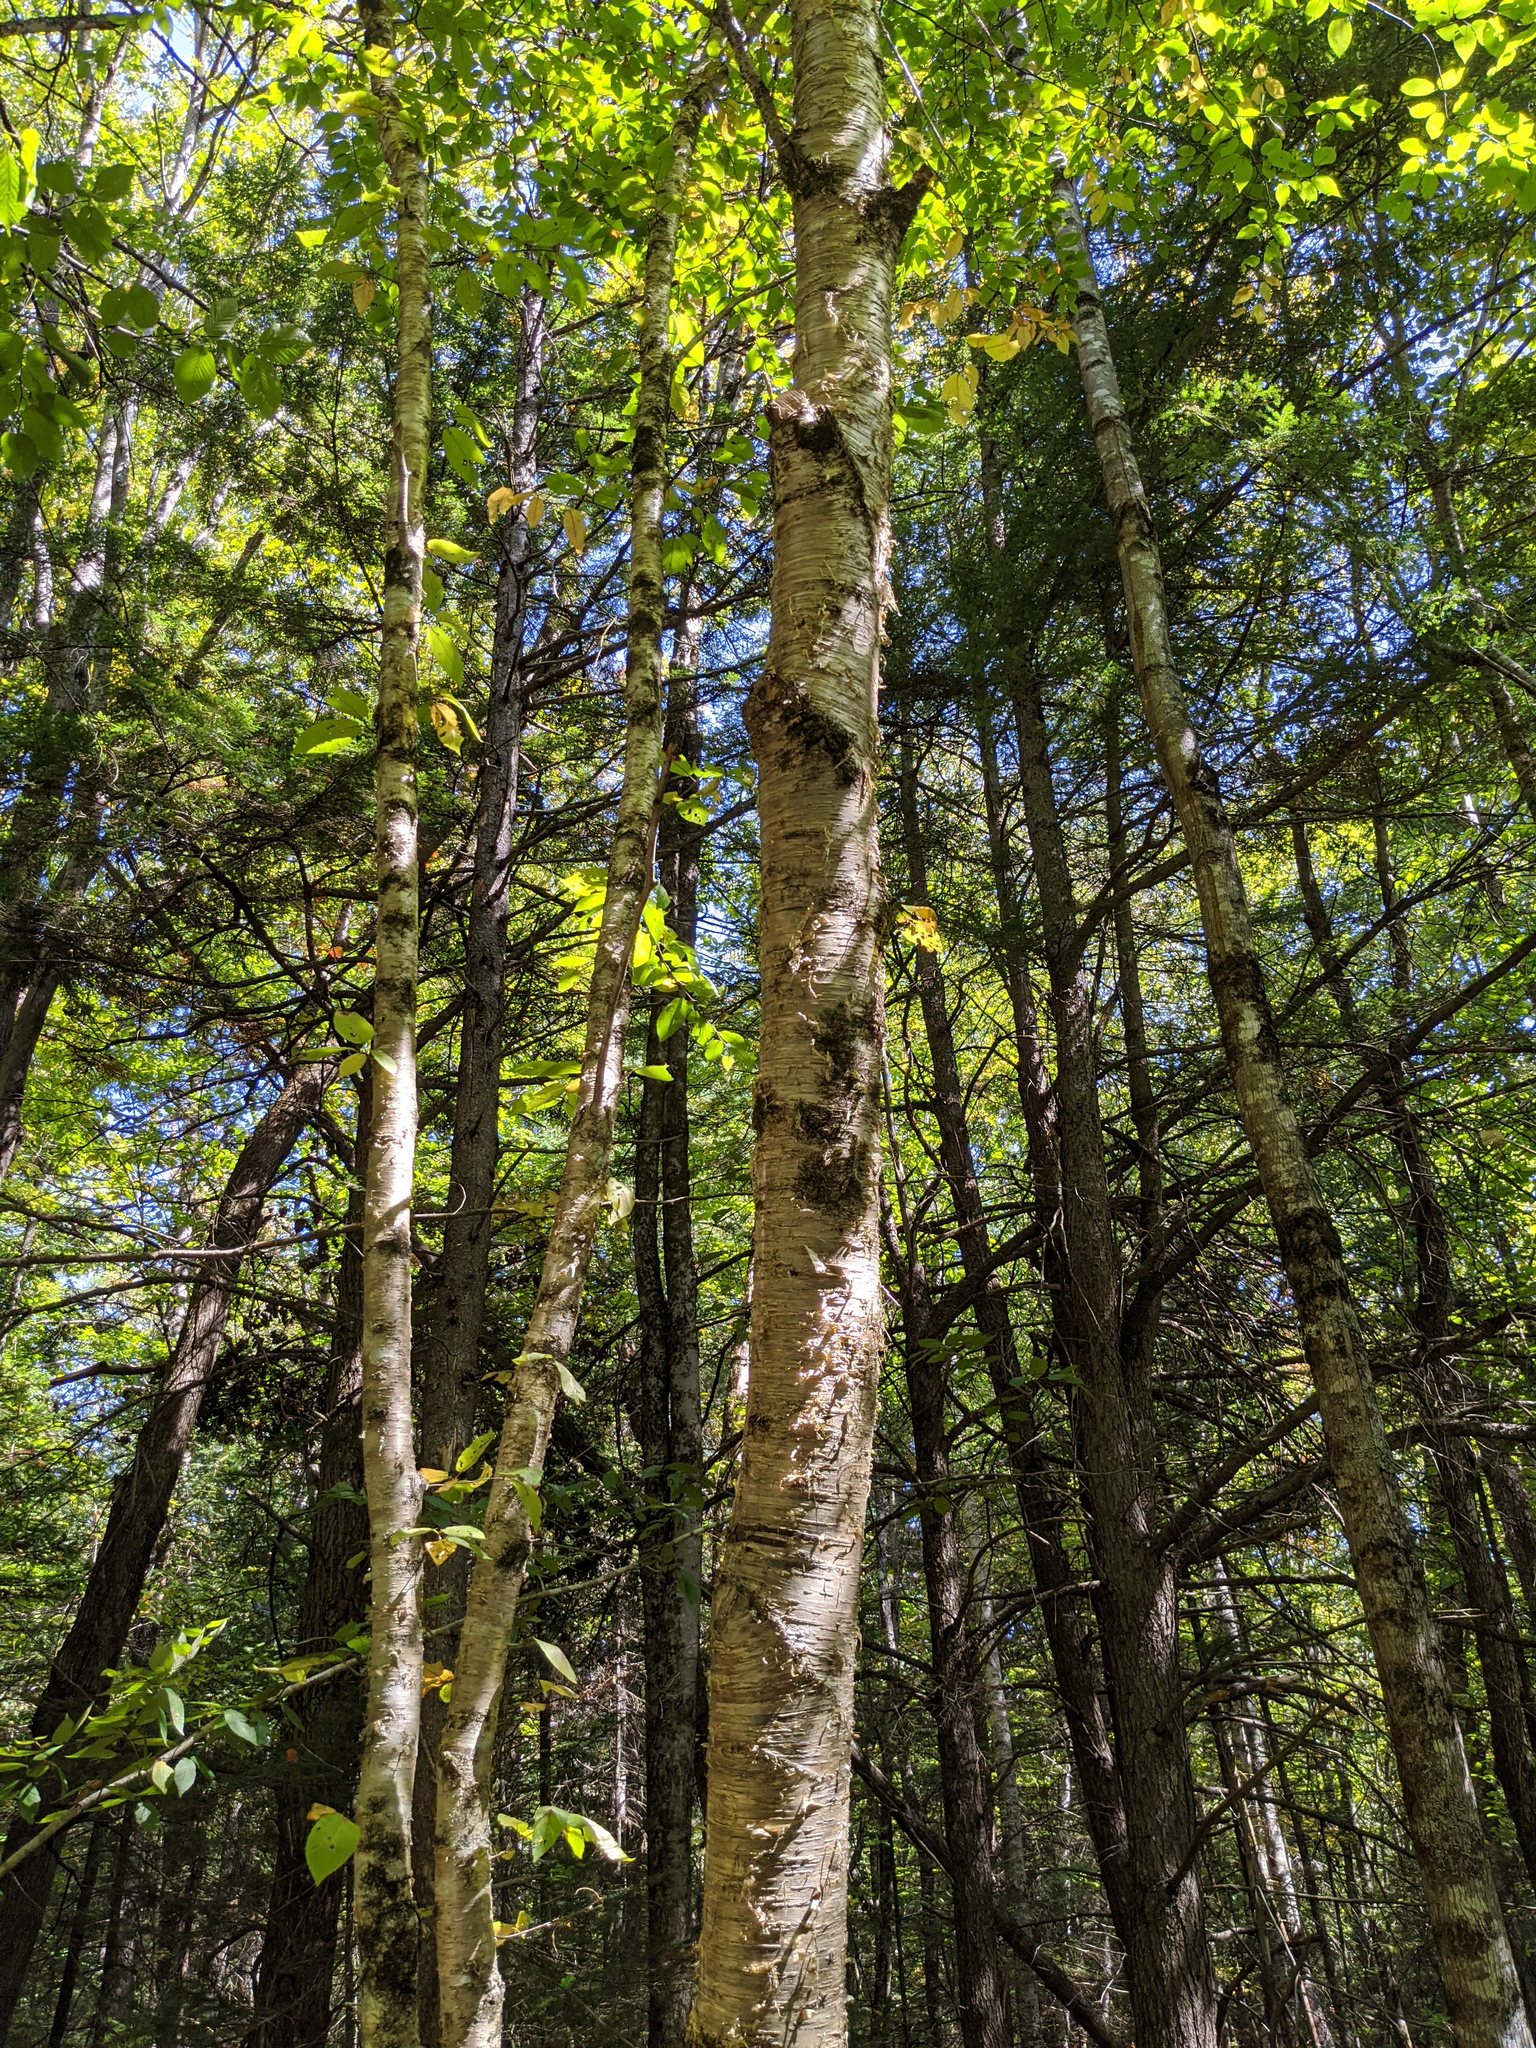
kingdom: Plantae
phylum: Tracheophyta
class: Magnoliopsida
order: Fagales
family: Betulaceae
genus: Betula
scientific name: Betula alleghaniensis
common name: Yellow birch
